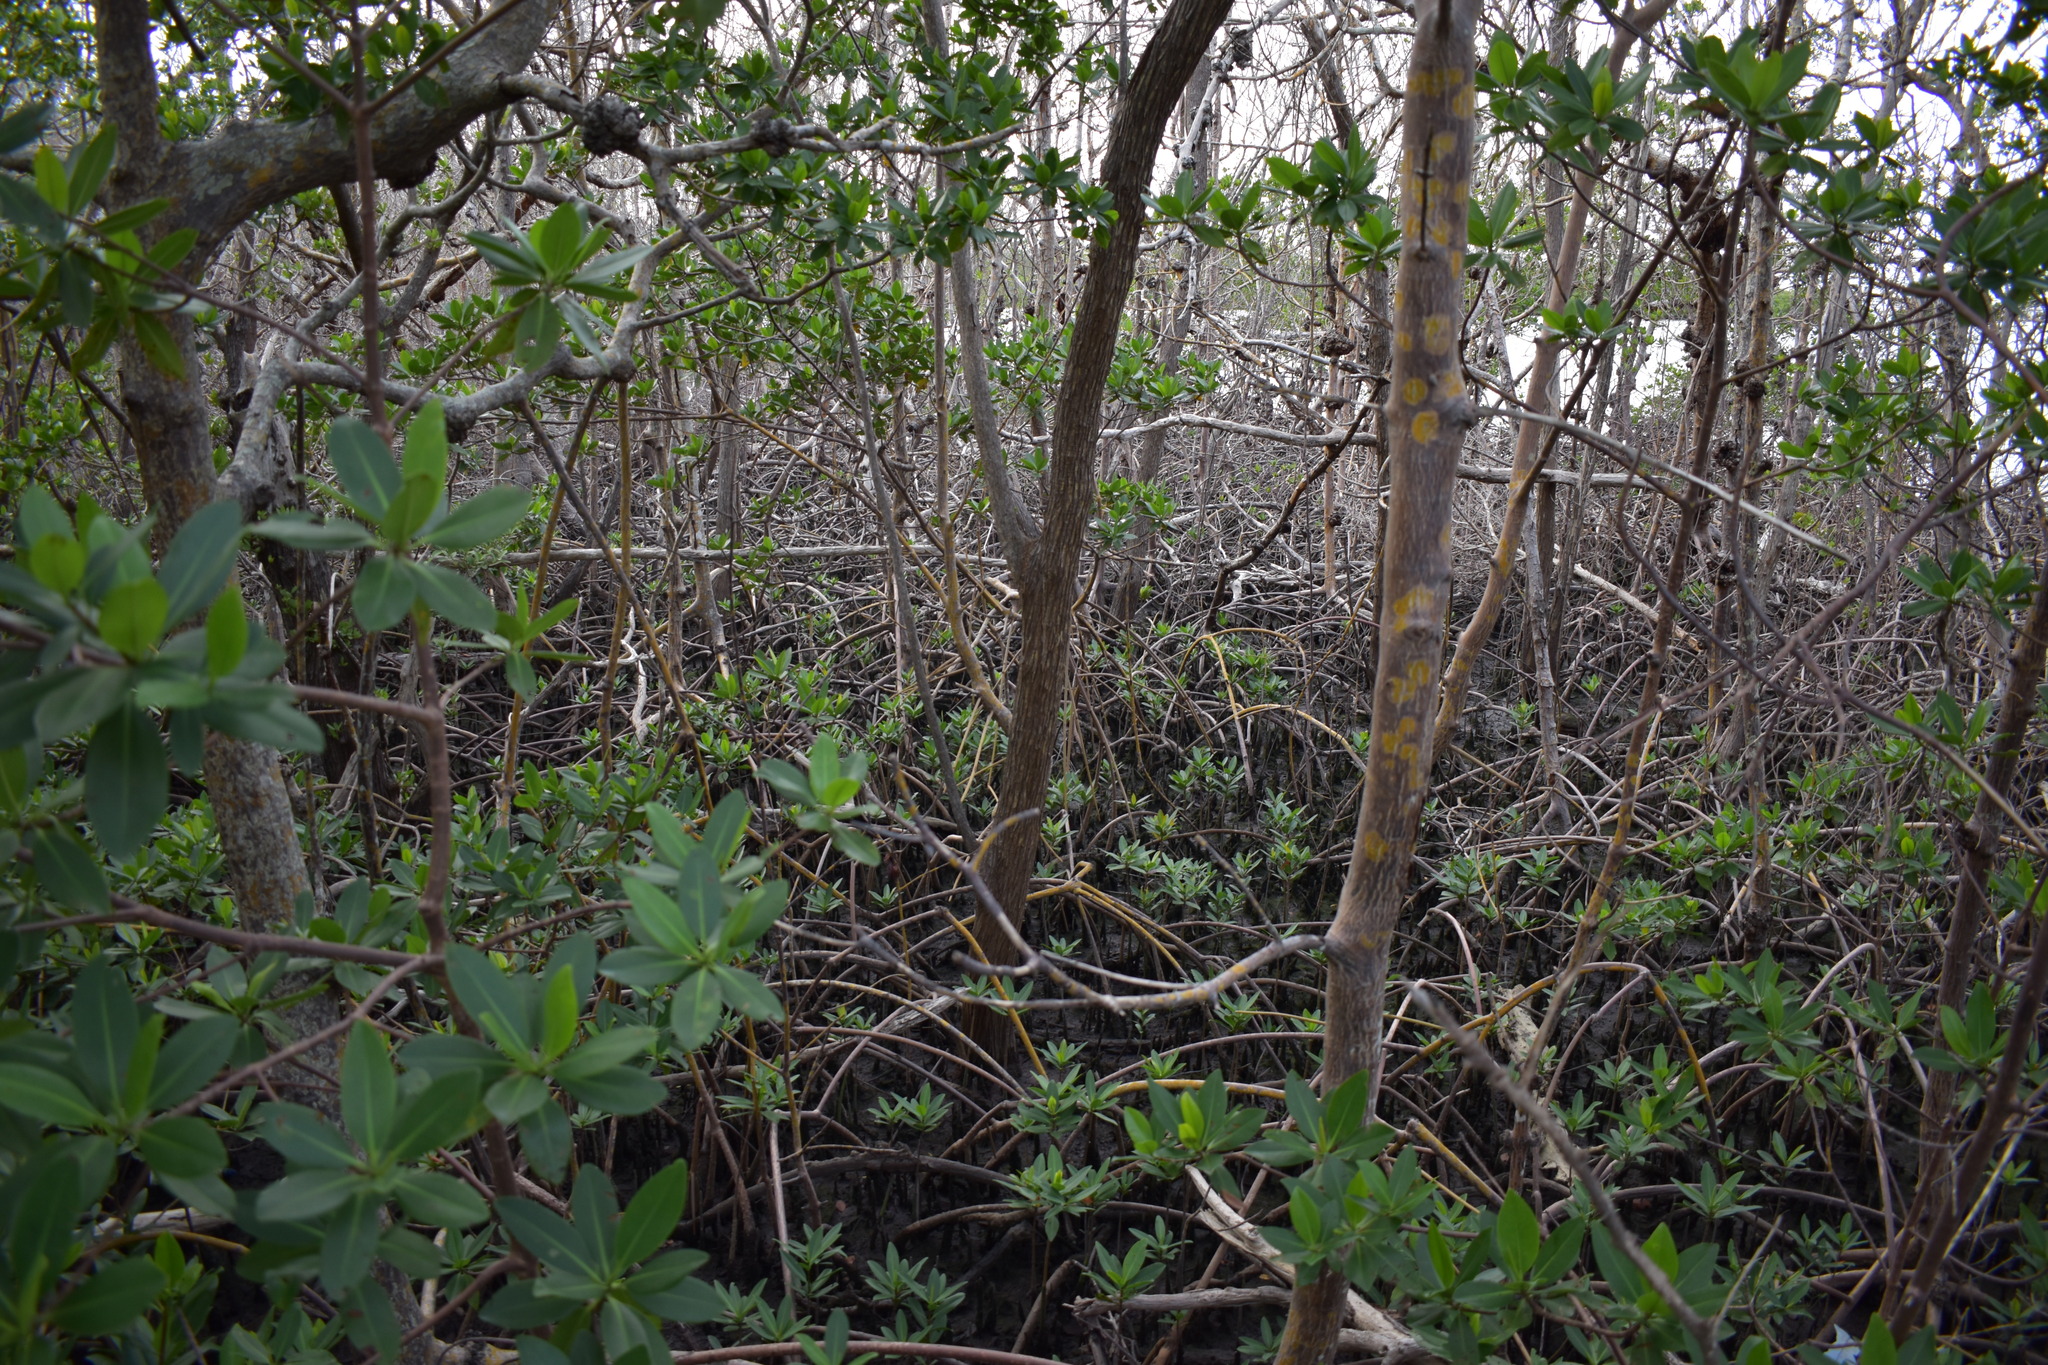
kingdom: Plantae
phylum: Tracheophyta
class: Magnoliopsida
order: Malpighiales
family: Rhizophoraceae
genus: Rhizophora
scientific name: Rhizophora mangle
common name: Red mangrove
